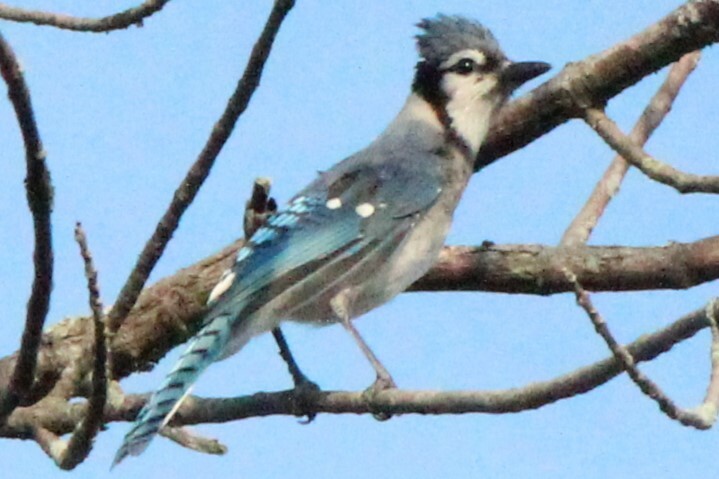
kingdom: Animalia
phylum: Chordata
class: Aves
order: Passeriformes
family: Corvidae
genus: Cyanocitta
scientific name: Cyanocitta cristata
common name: Blue jay
